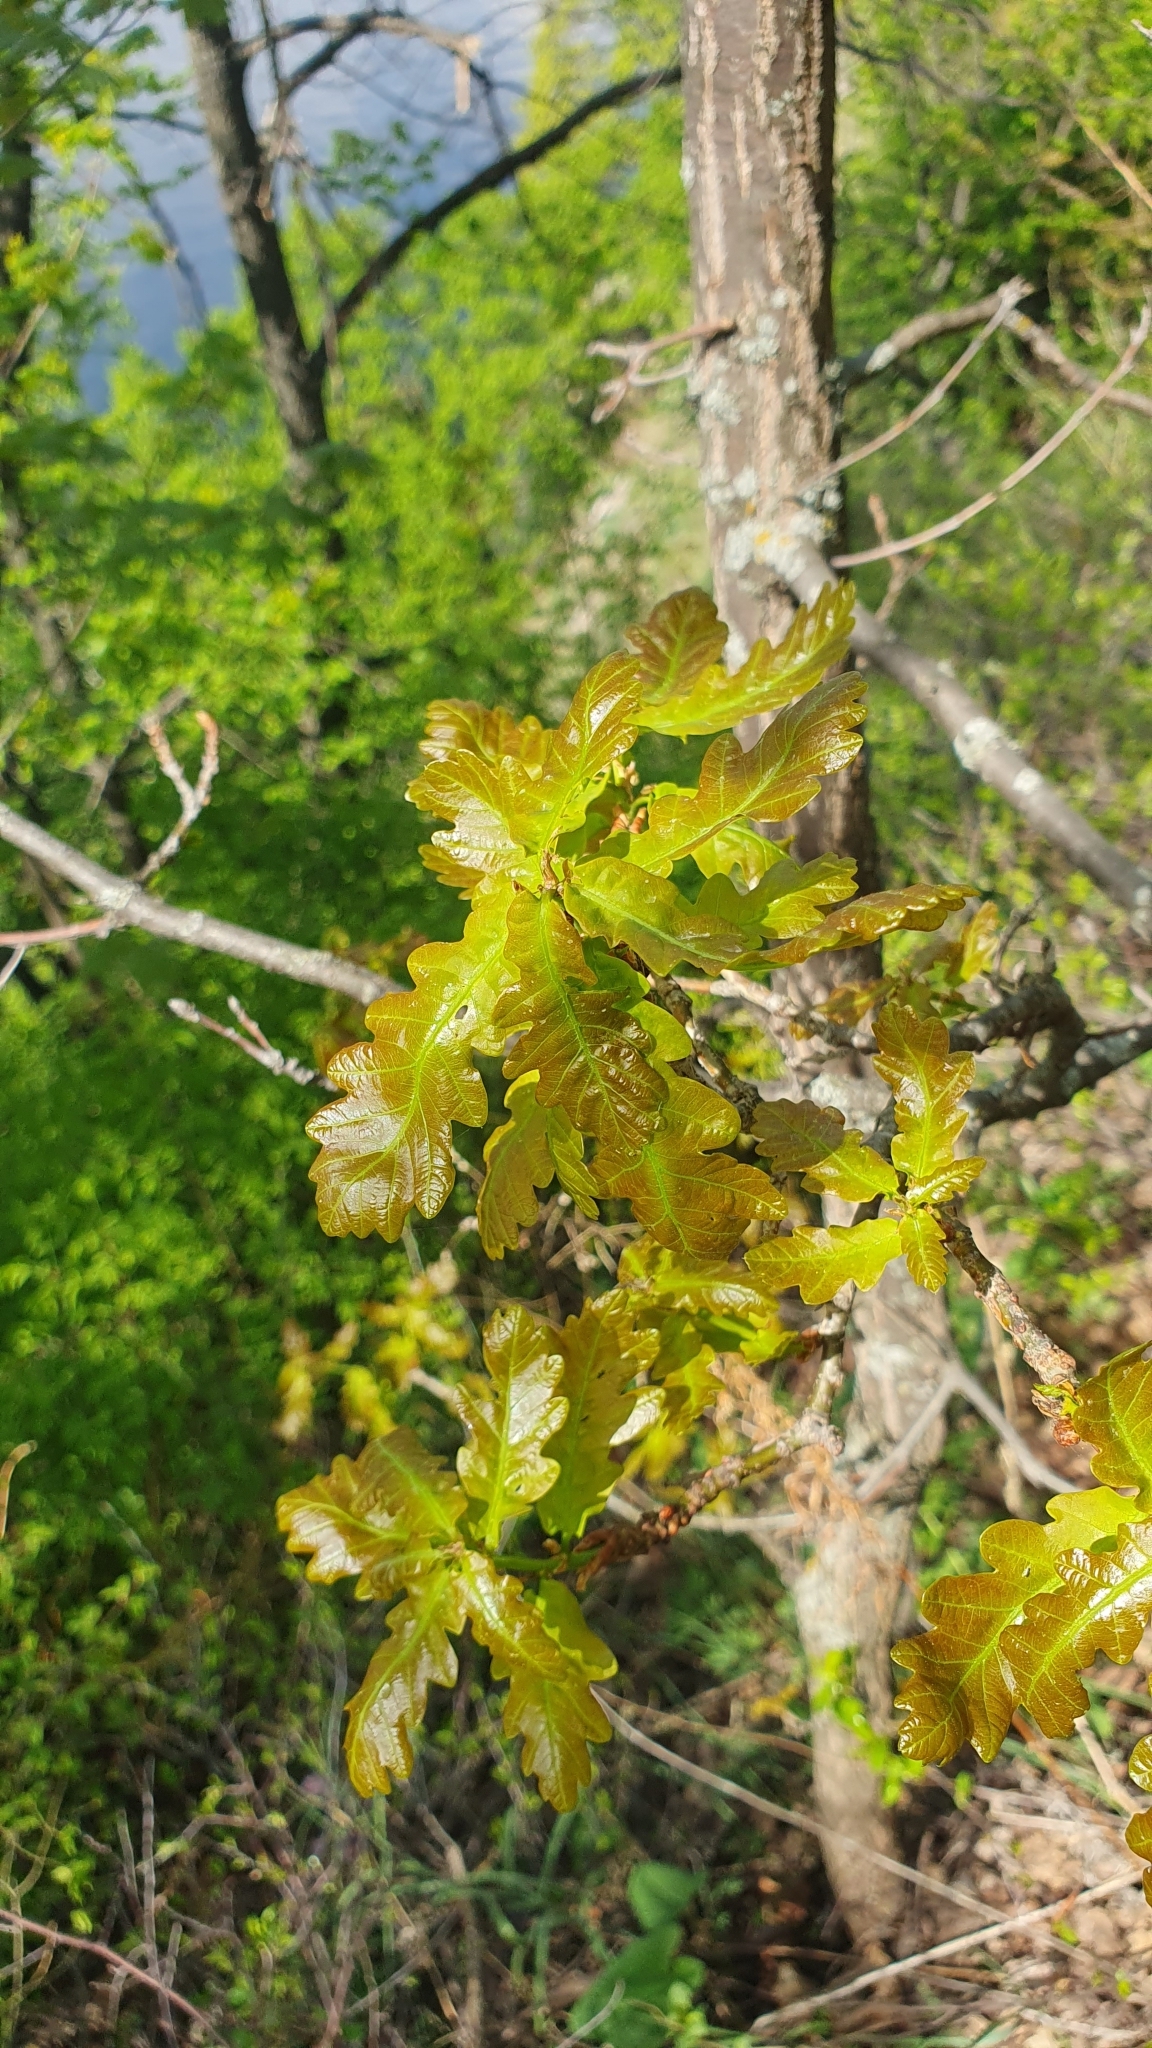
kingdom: Plantae
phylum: Tracheophyta
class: Magnoliopsida
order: Fagales
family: Fagaceae
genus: Quercus
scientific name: Quercus robur
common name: Pedunculate oak
